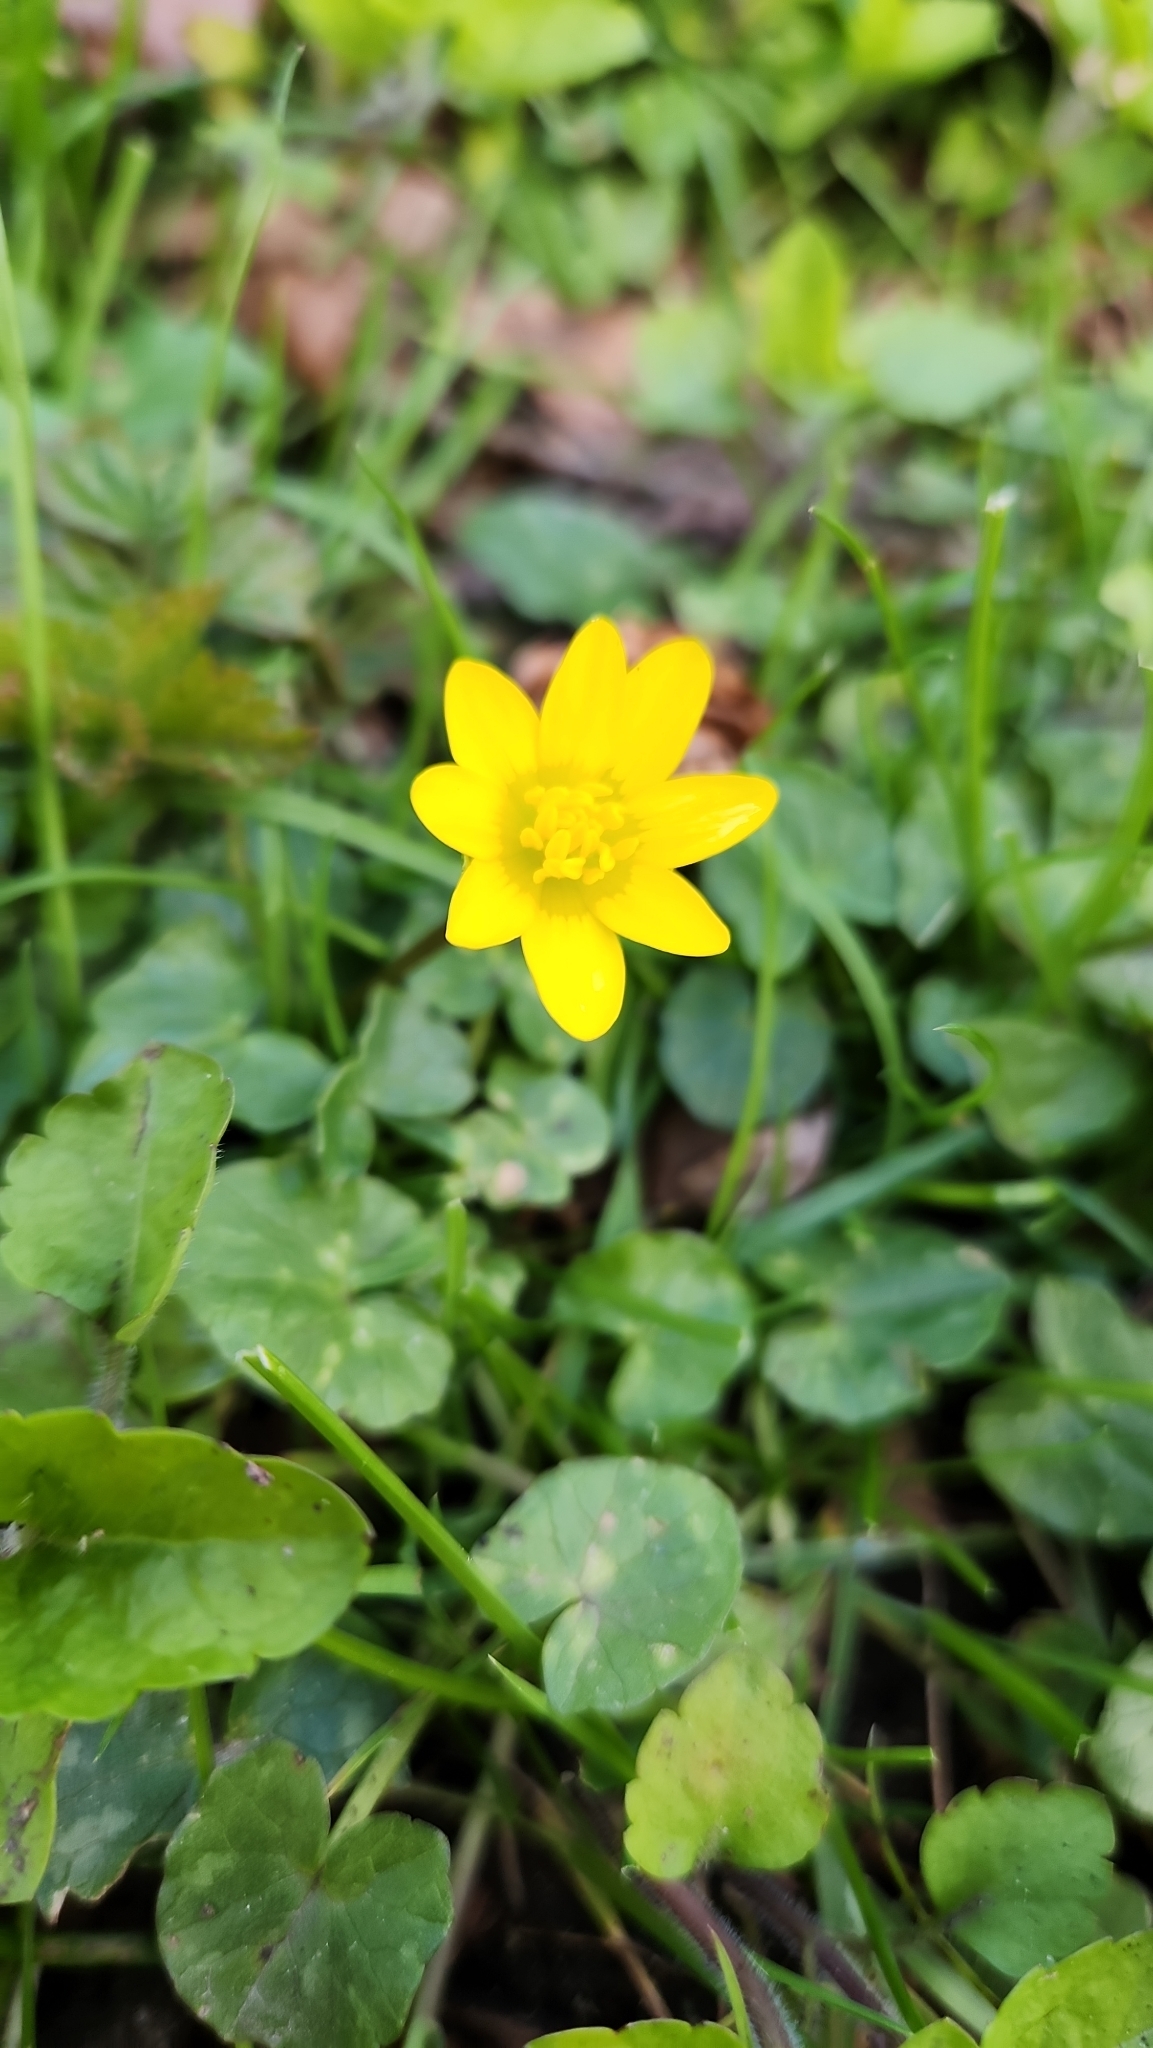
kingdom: Plantae
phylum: Tracheophyta
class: Magnoliopsida
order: Ranunculales
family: Ranunculaceae
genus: Ficaria
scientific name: Ficaria verna
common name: Lesser celandine
